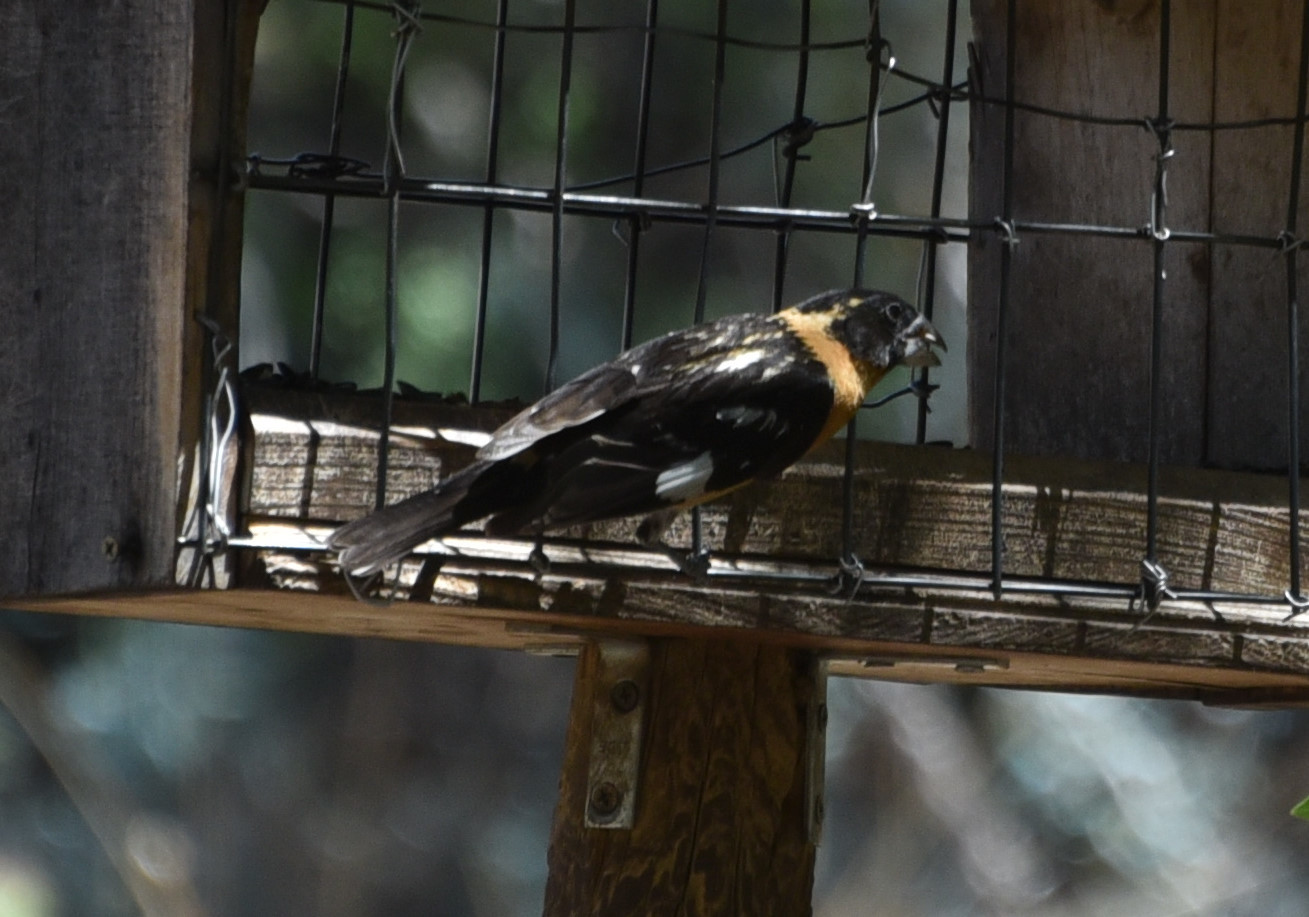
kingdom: Animalia
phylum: Chordata
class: Aves
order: Passeriformes
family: Cardinalidae
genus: Pheucticus
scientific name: Pheucticus melanocephalus
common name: Black-headed grosbeak
